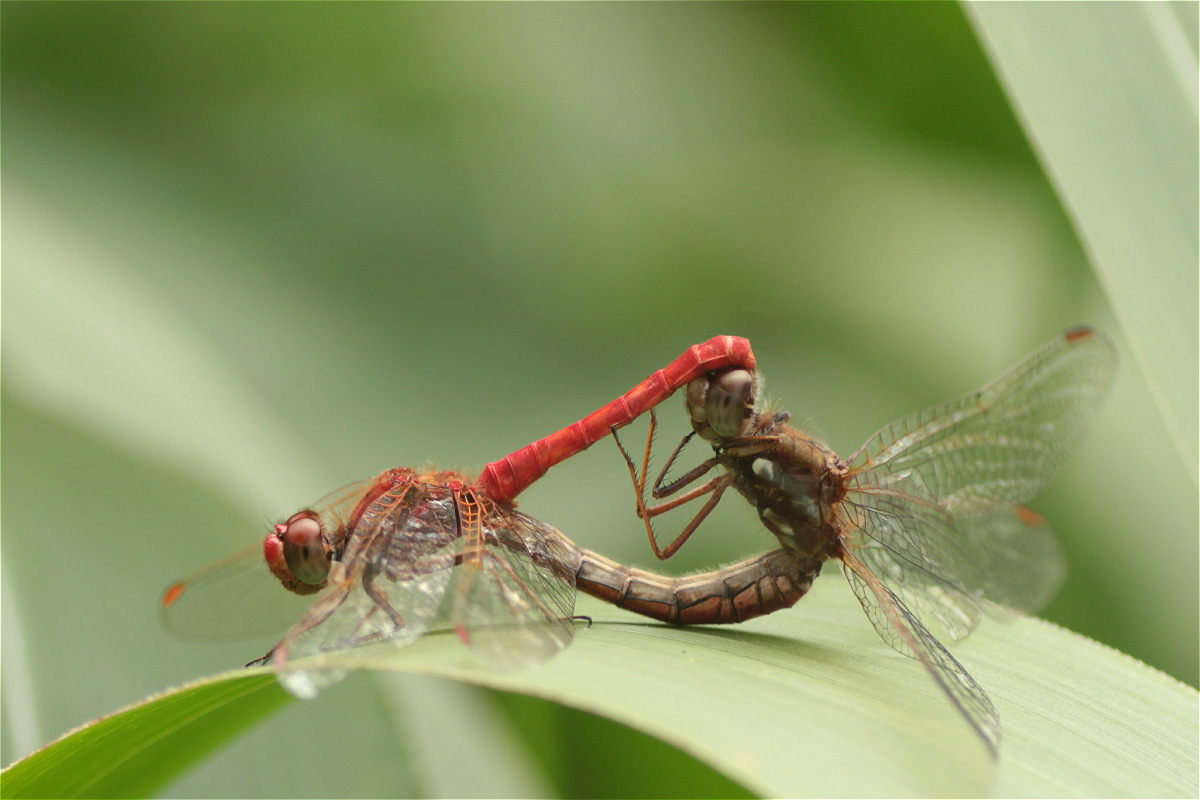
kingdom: Animalia
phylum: Arthropoda
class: Insecta
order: Odonata
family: Libellulidae
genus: Sympetrum
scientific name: Sympetrum gilvum
